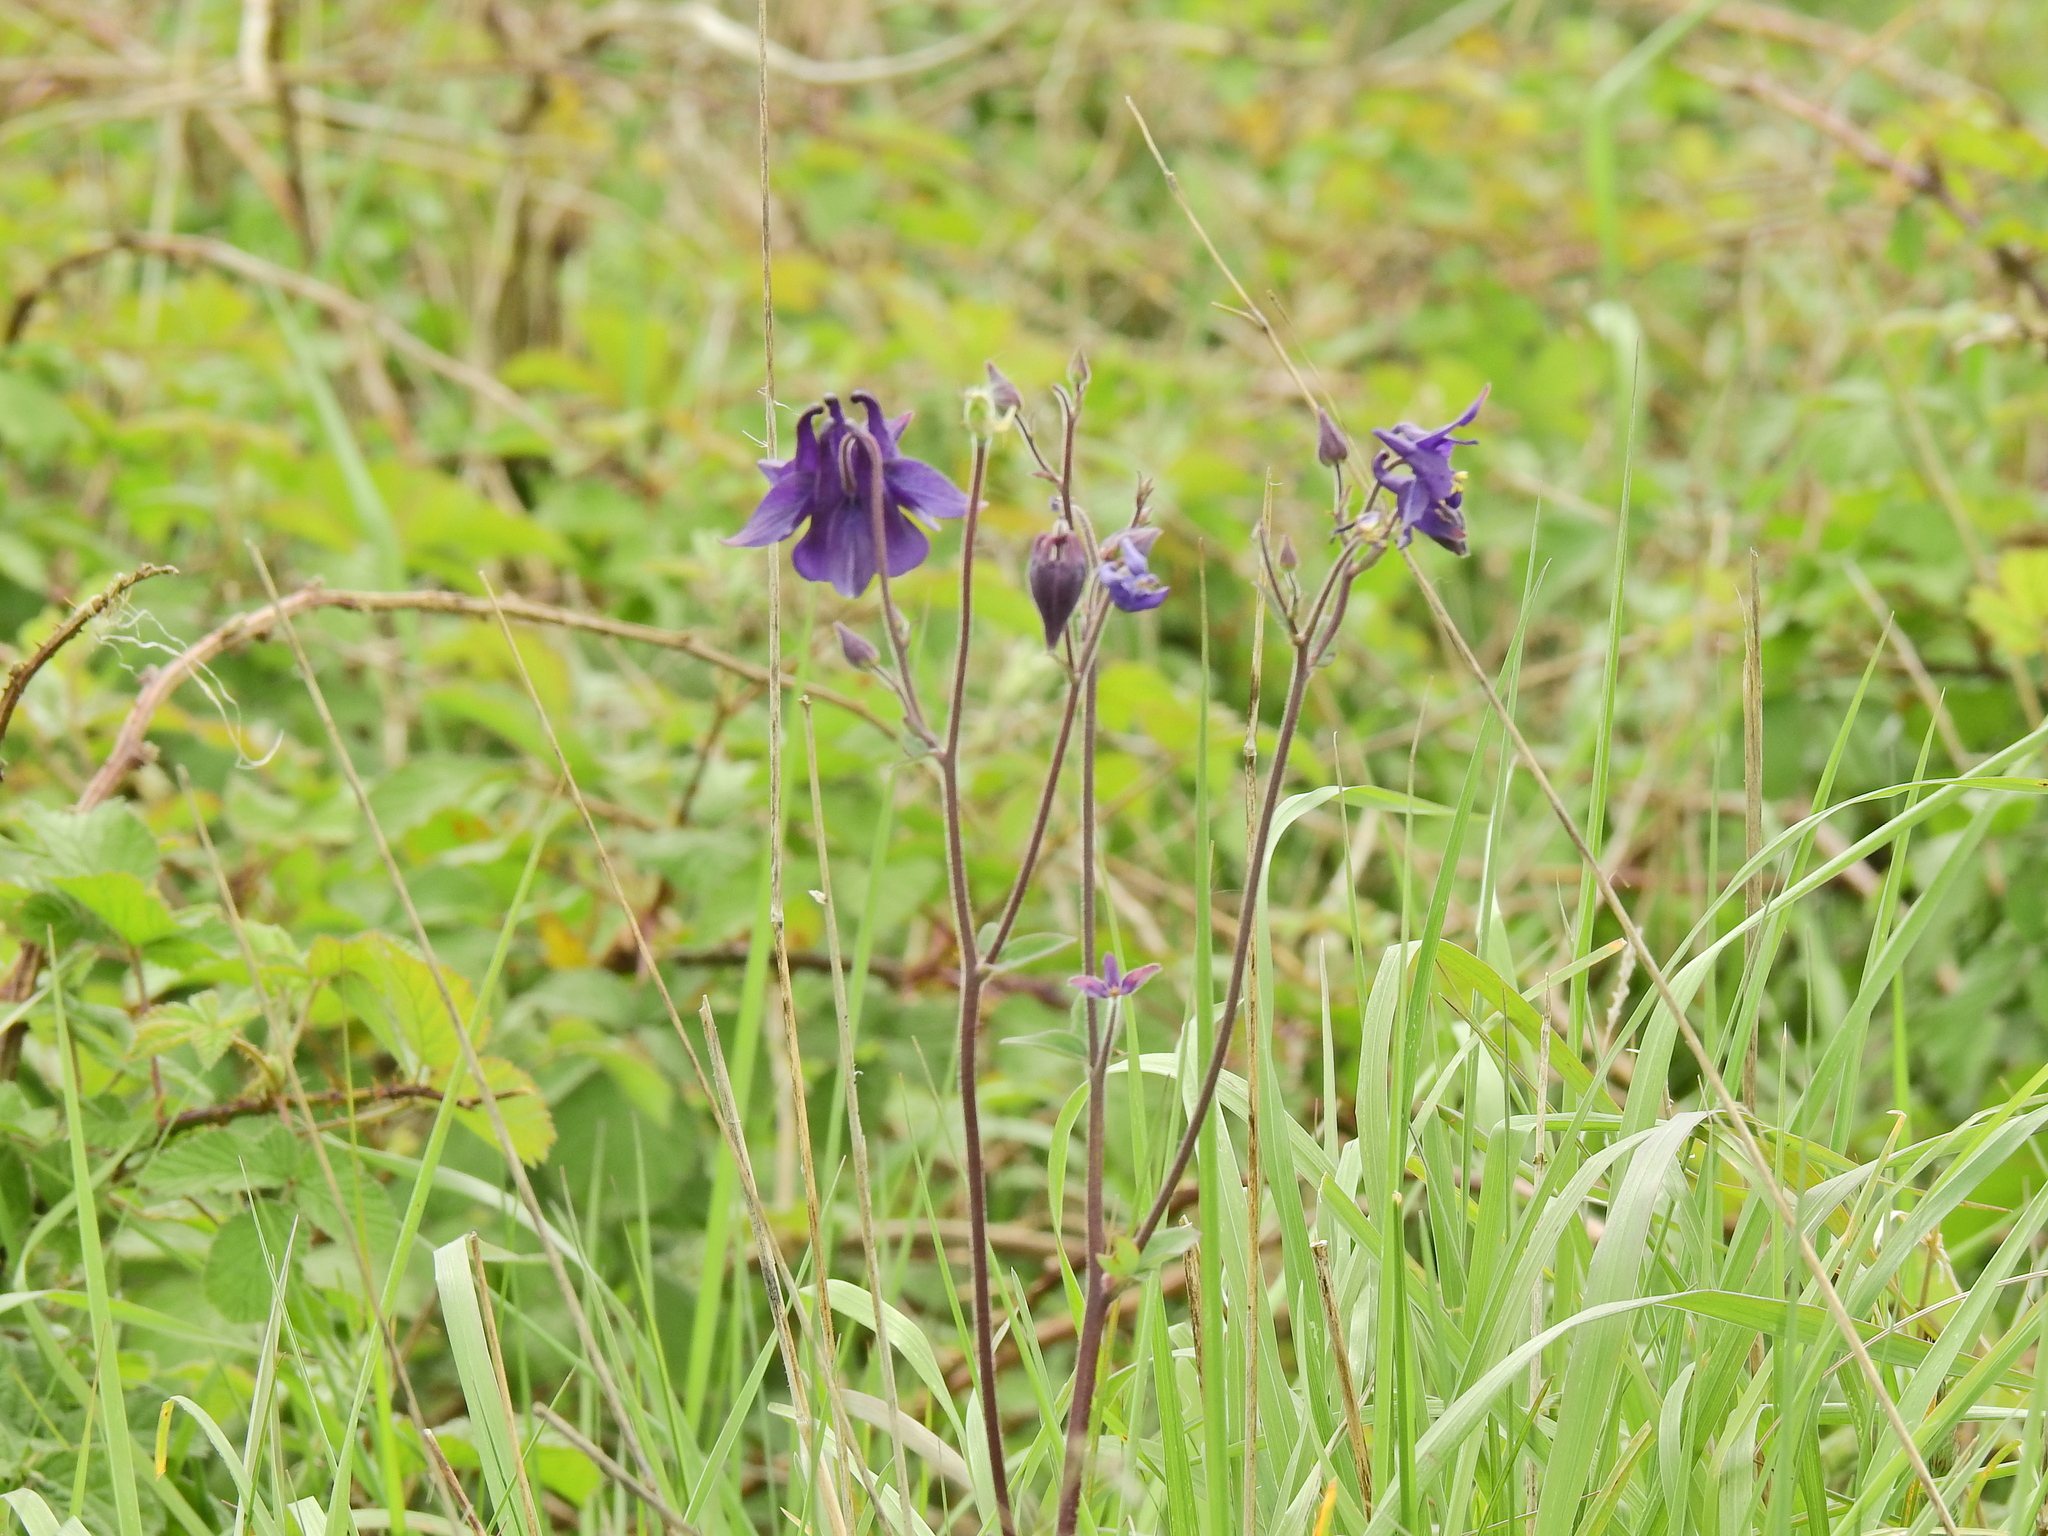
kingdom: Plantae
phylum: Tracheophyta
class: Magnoliopsida
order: Ranunculales
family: Ranunculaceae
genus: Aquilegia
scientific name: Aquilegia vulgaris
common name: Columbine
